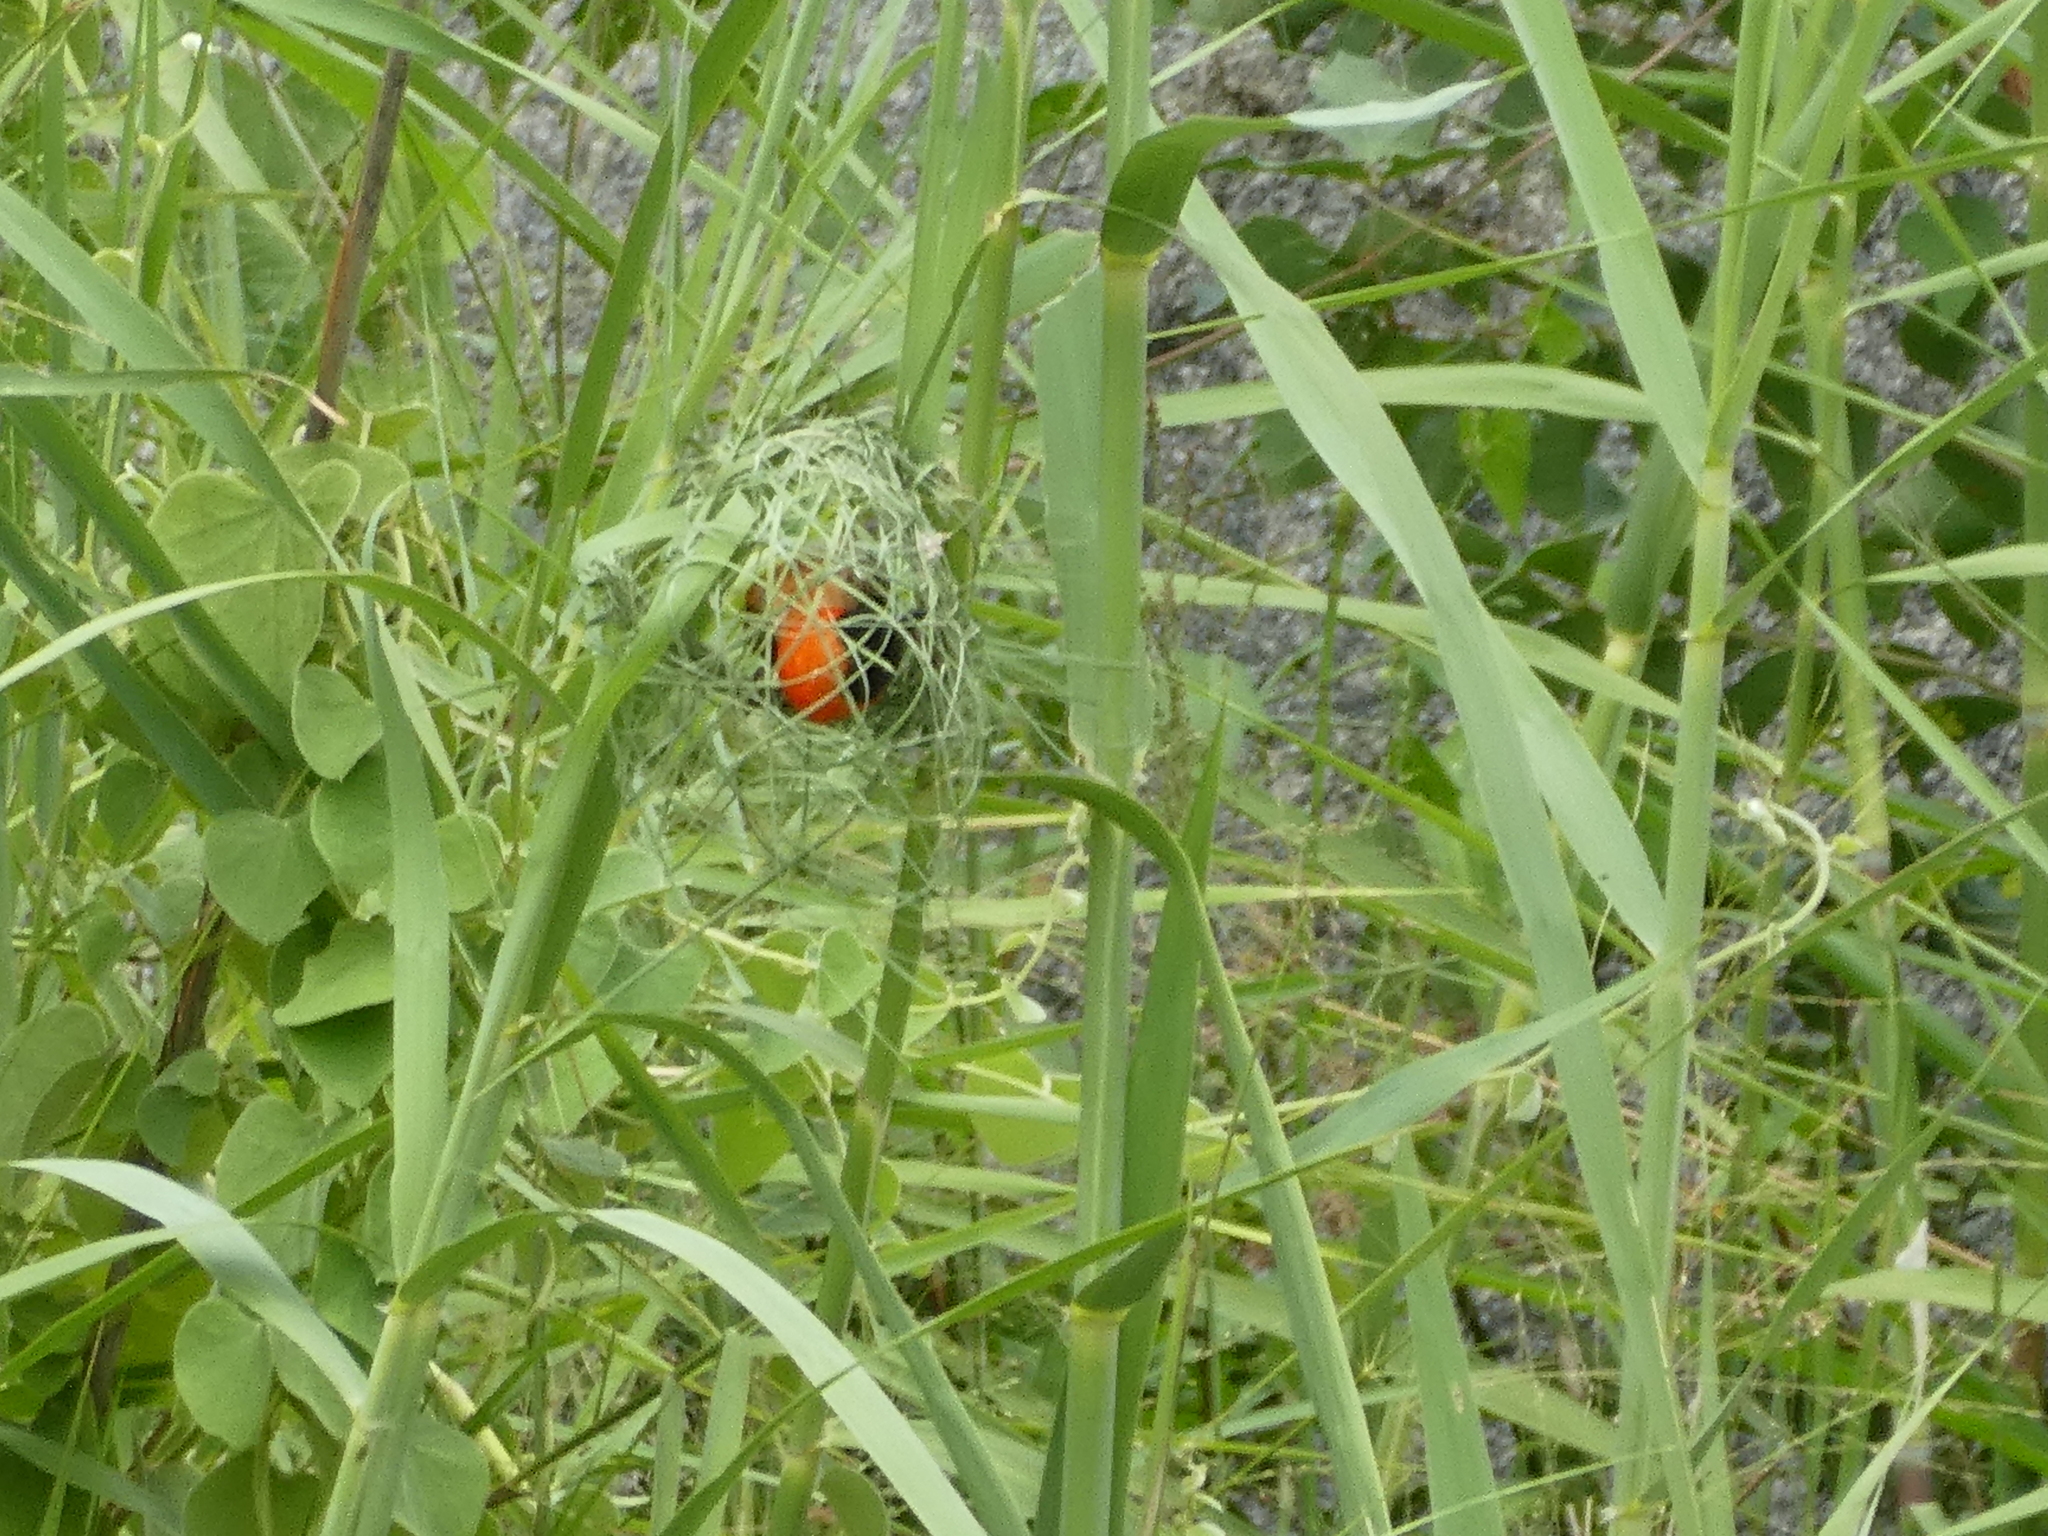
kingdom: Animalia
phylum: Chordata
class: Aves
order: Passeriformes
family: Ploceidae
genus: Euplectes
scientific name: Euplectes orix
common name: Southern red bishop
